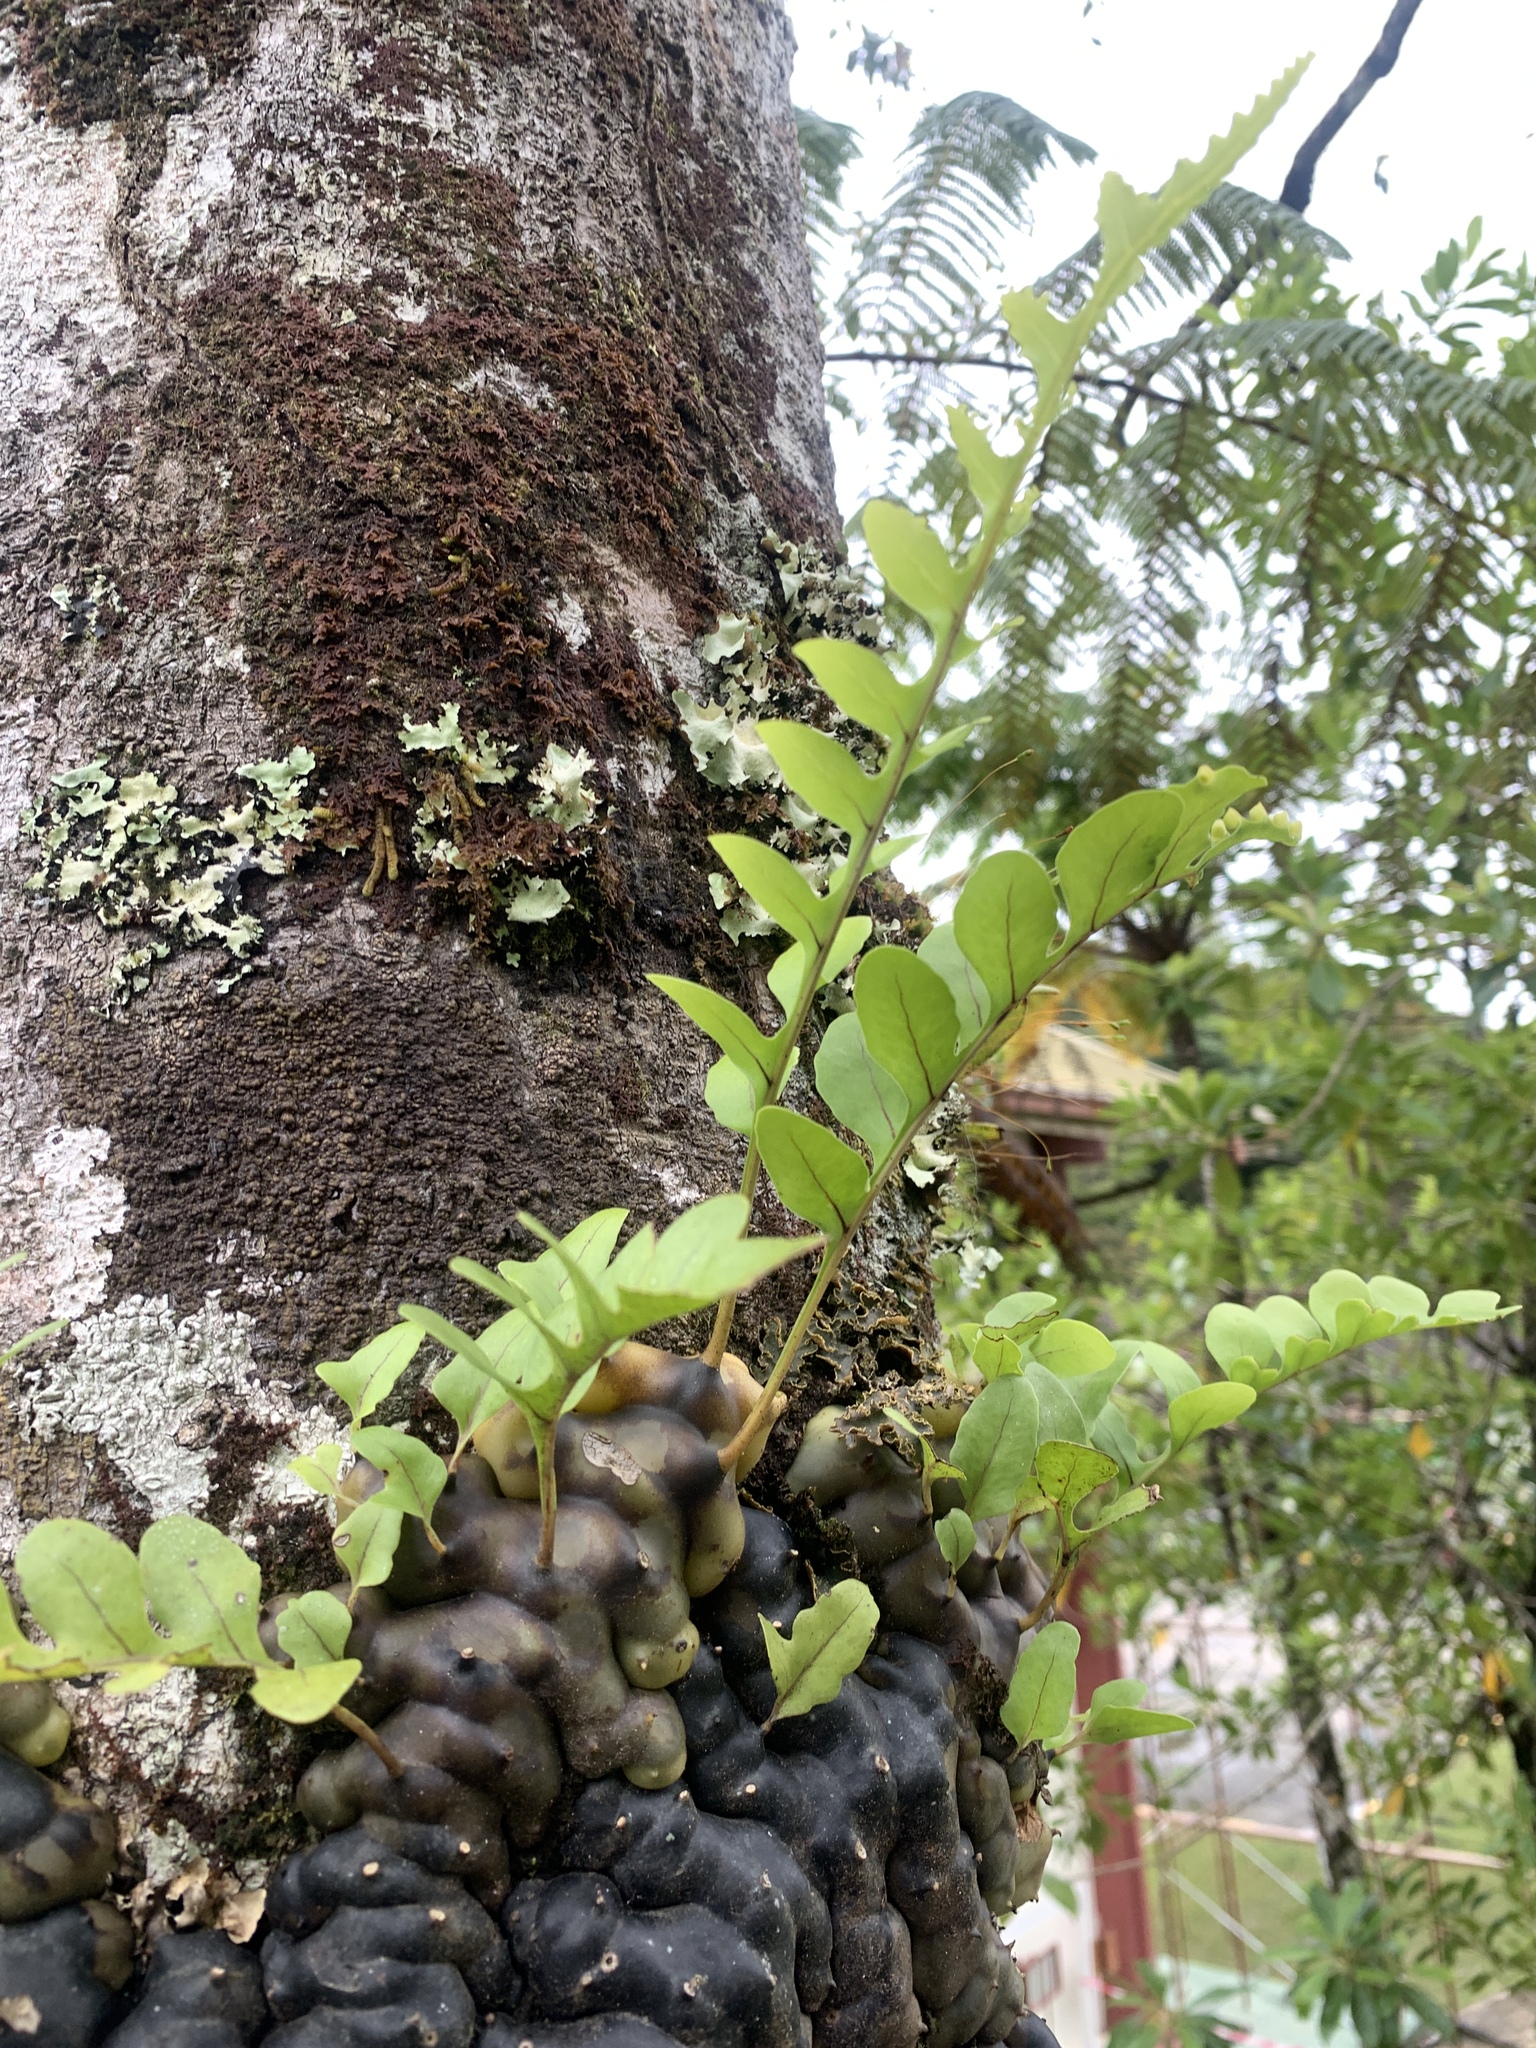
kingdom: Plantae
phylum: Tracheophyta
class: Polypodiopsida
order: Polypodiales
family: Polypodiaceae
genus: Lecanopteris
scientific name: Lecanopteris pumila
